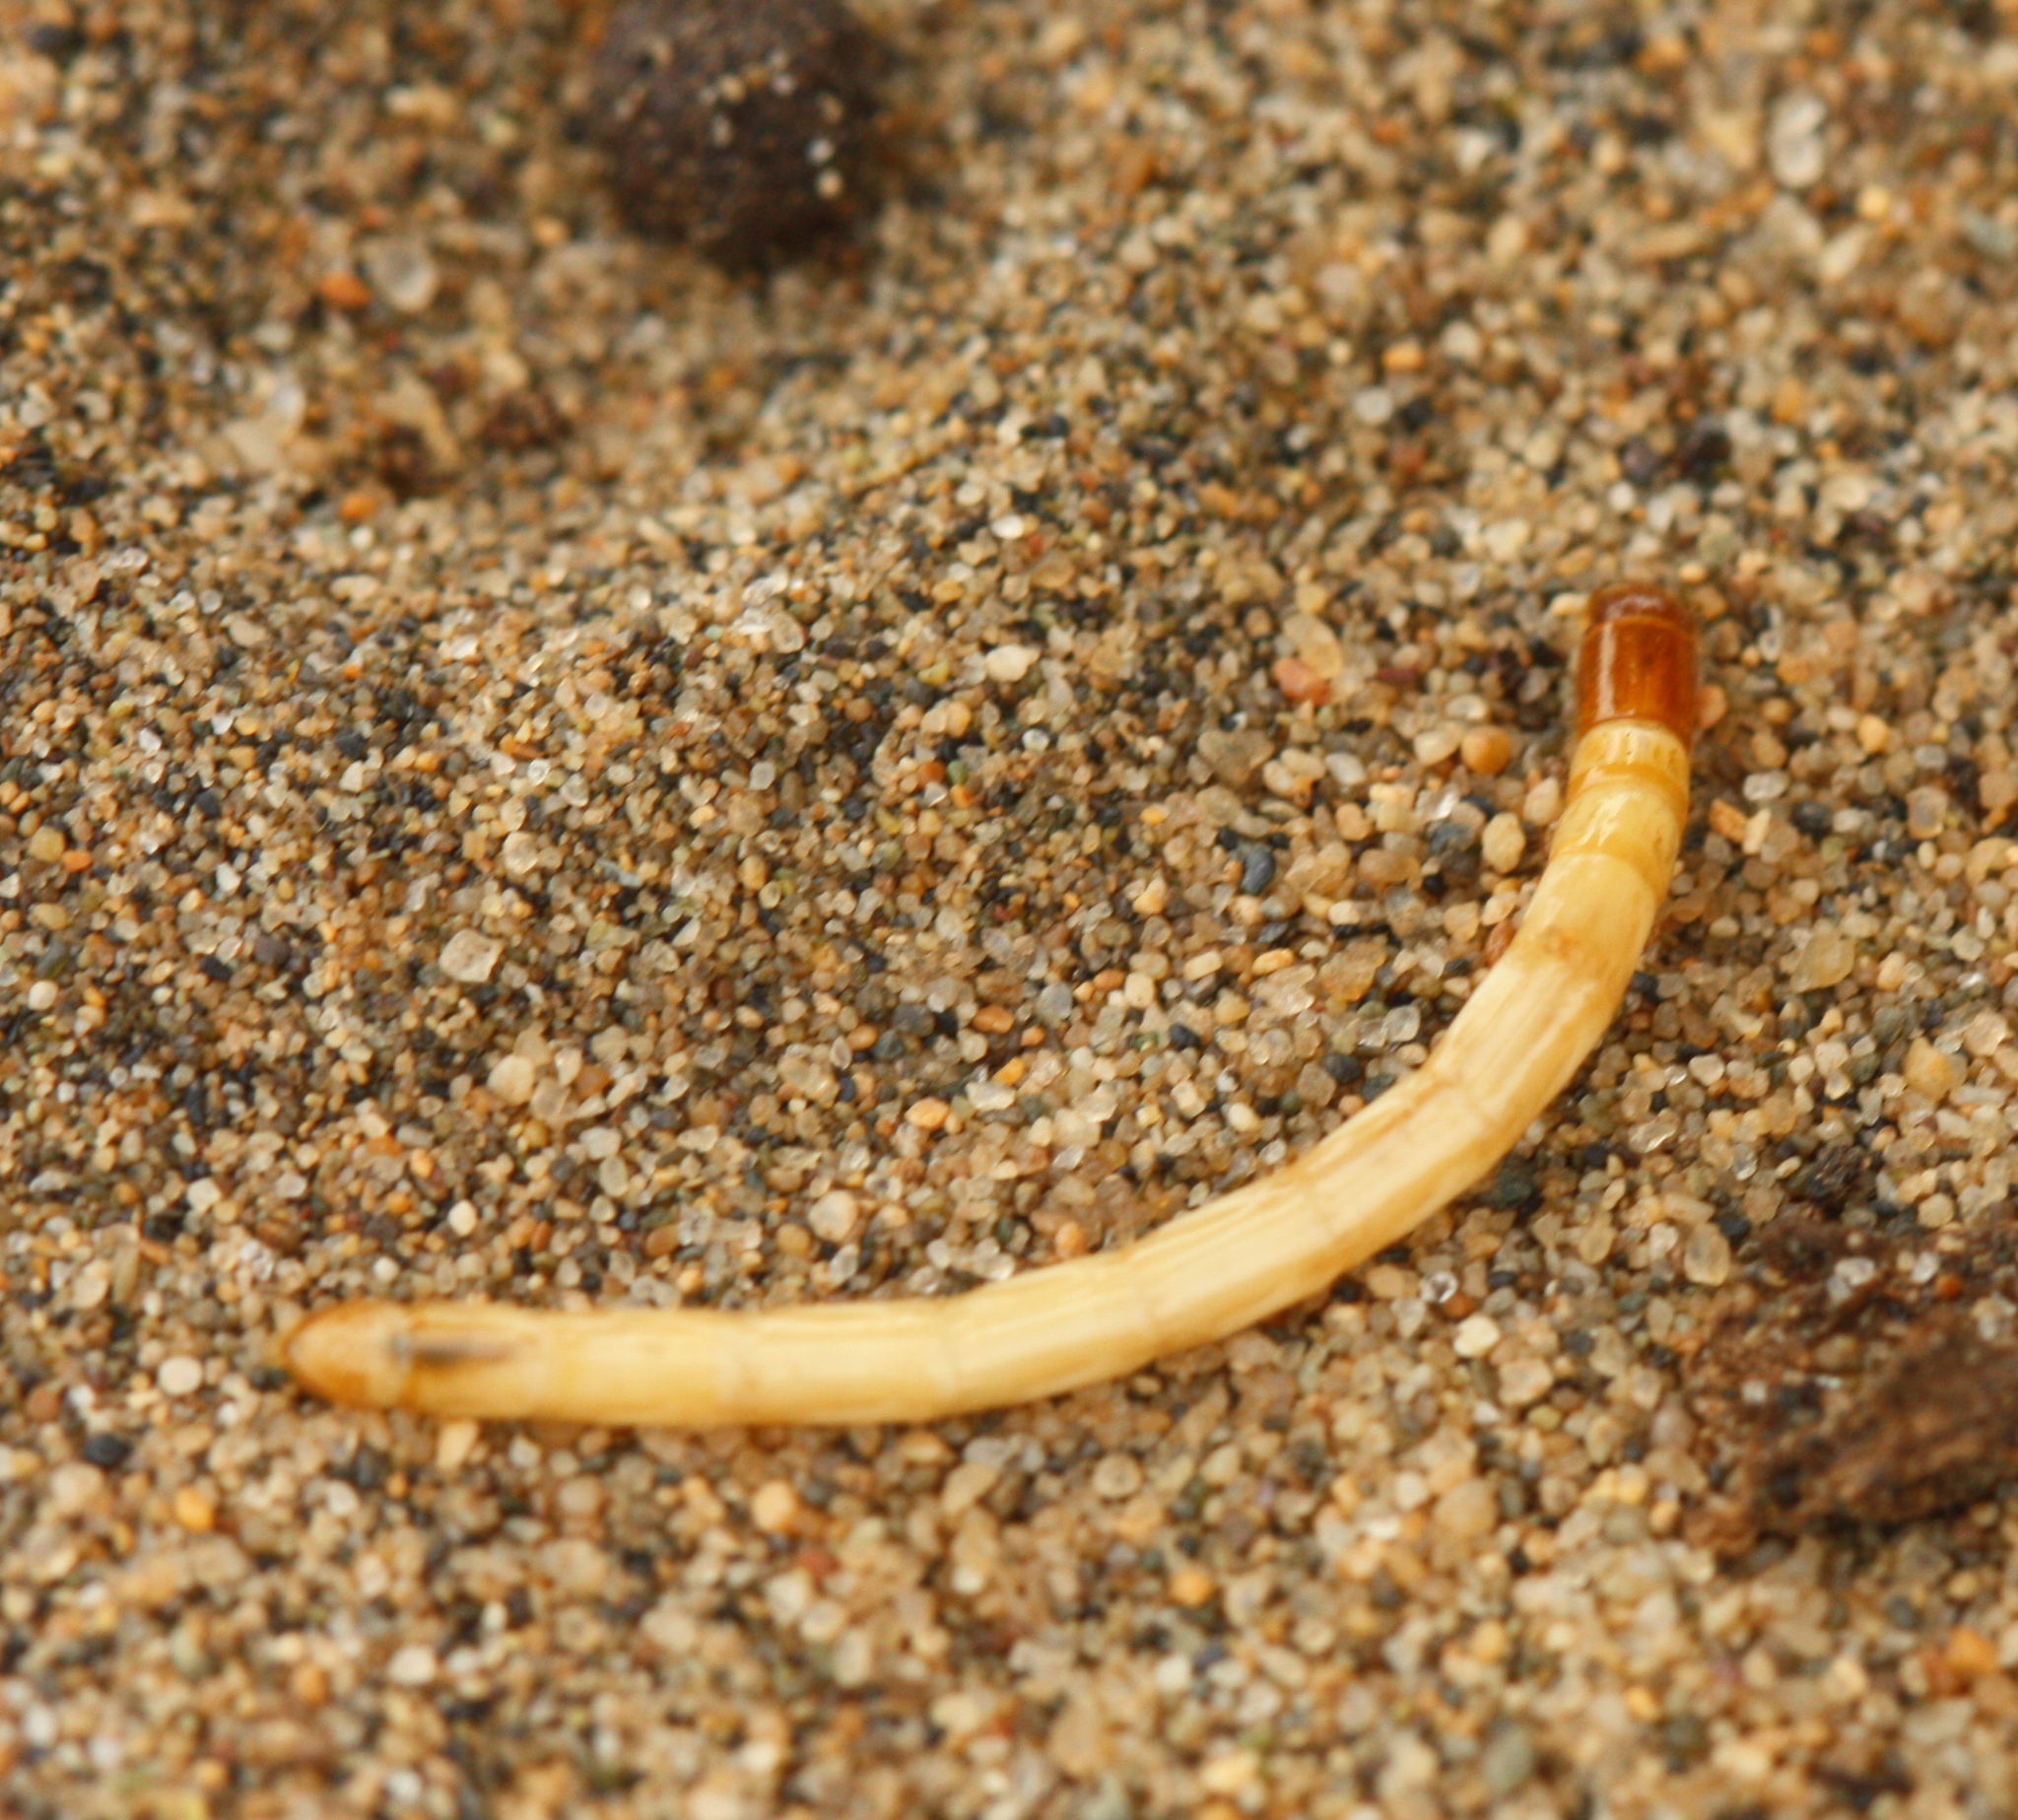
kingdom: Animalia
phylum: Arthropoda
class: Insecta
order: Coleoptera
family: Tenebrionidae
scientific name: Tenebrionidae
